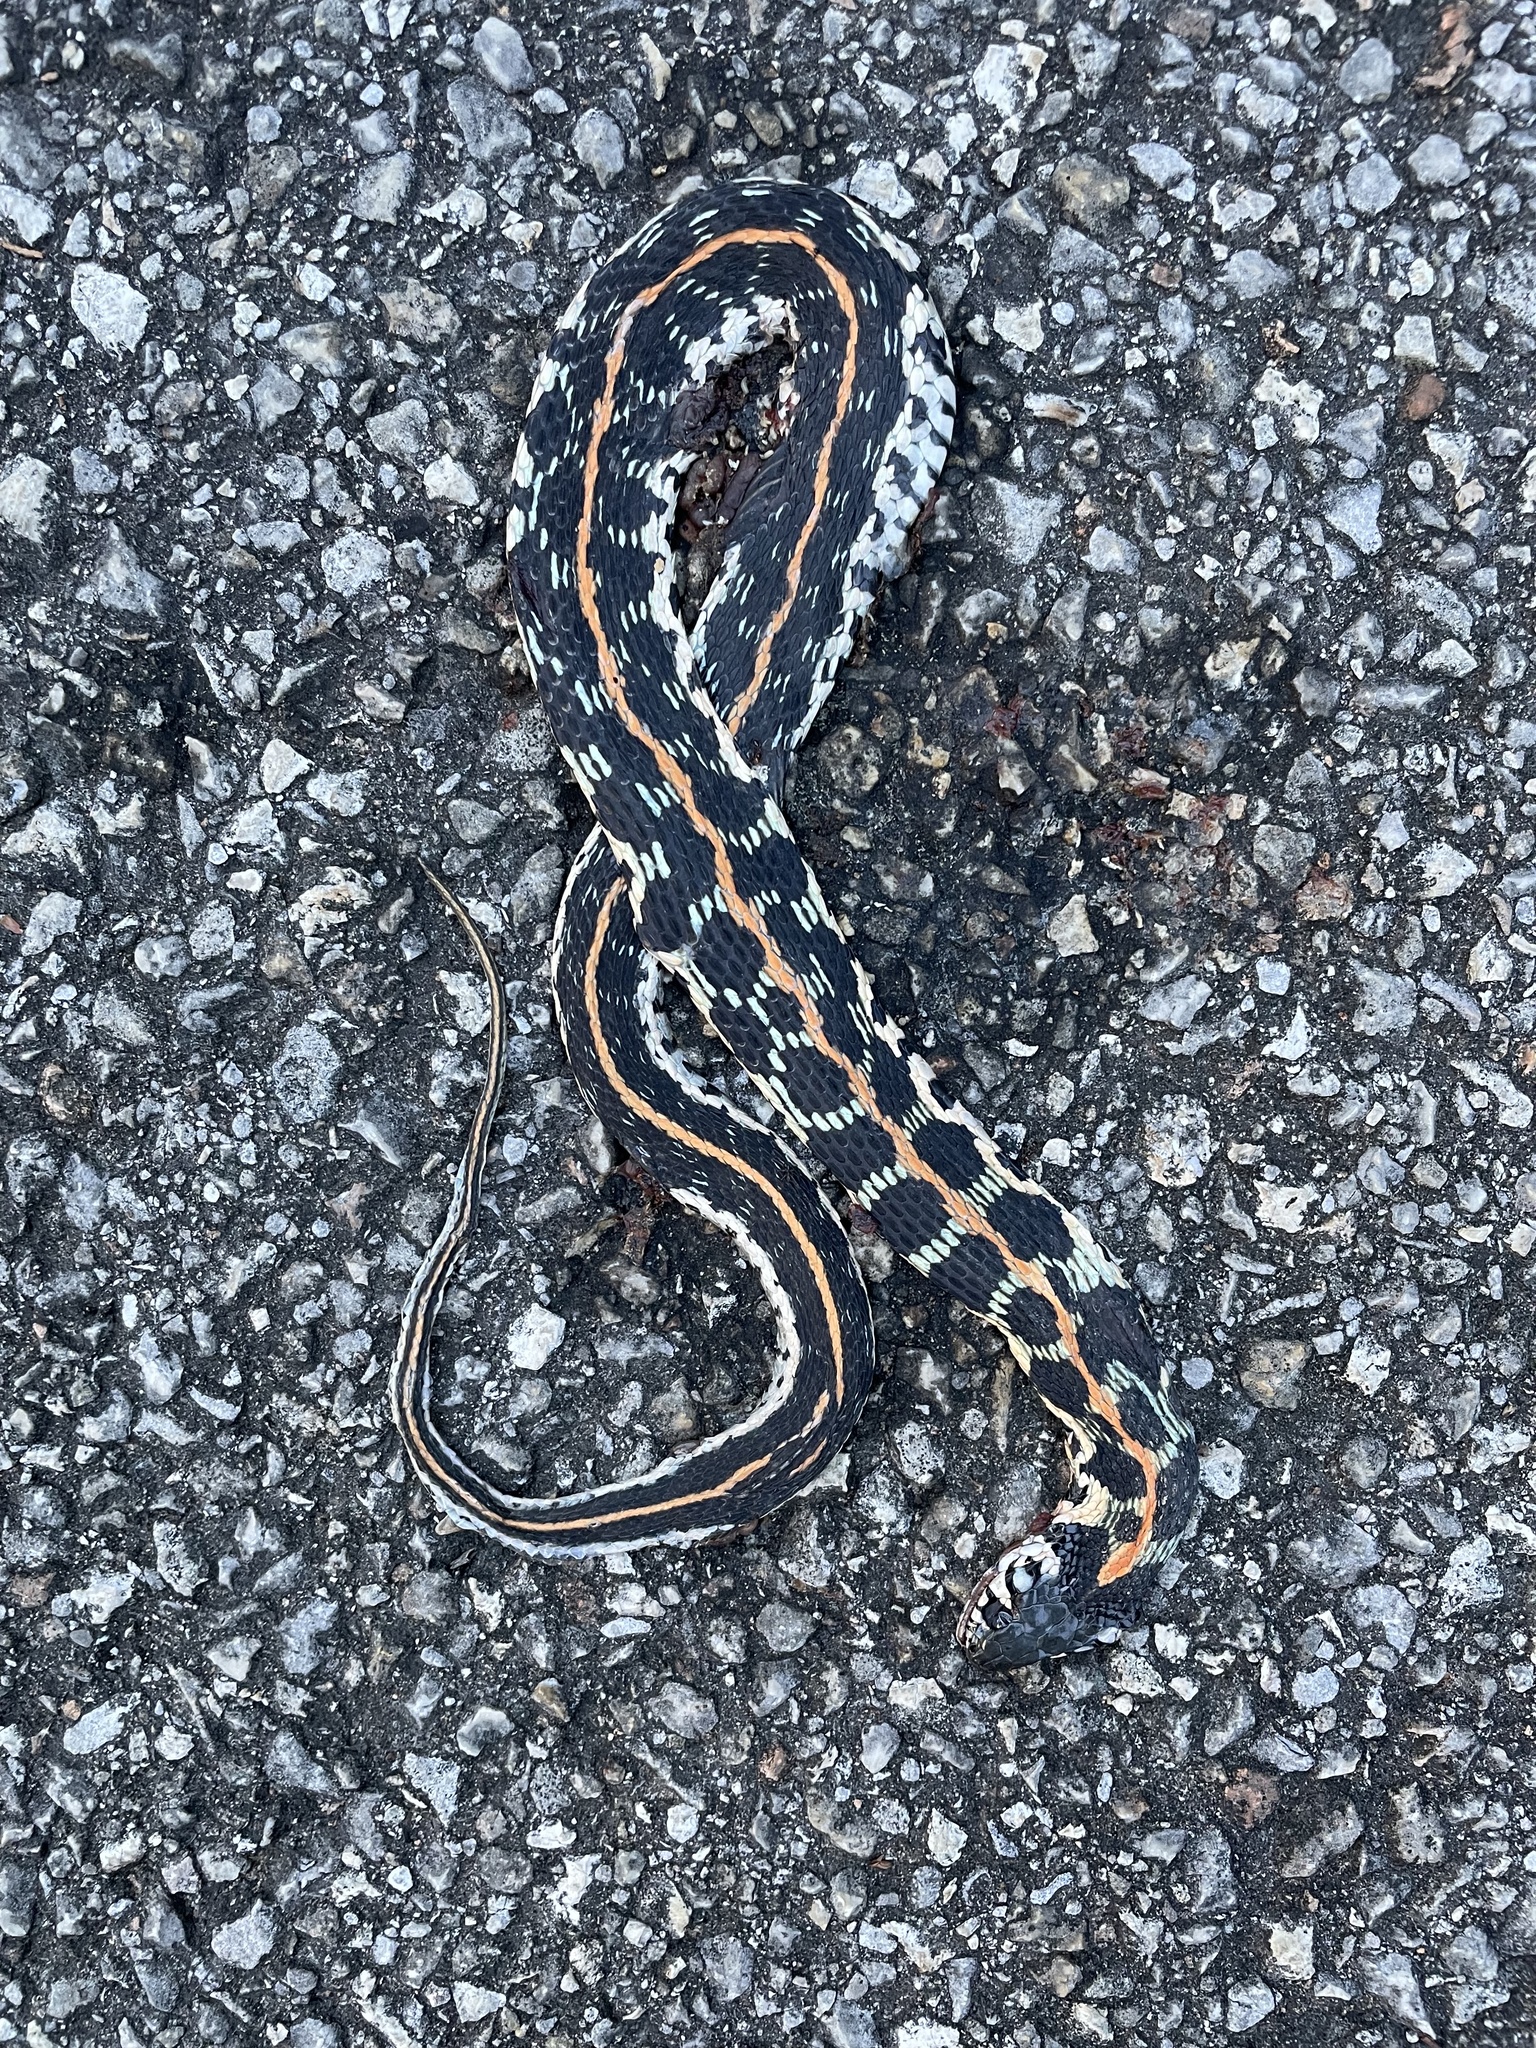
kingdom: Animalia
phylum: Chordata
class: Squamata
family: Colubridae
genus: Thamnophis
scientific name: Thamnophis cyrtopsis
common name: Black-necked gartersnake
